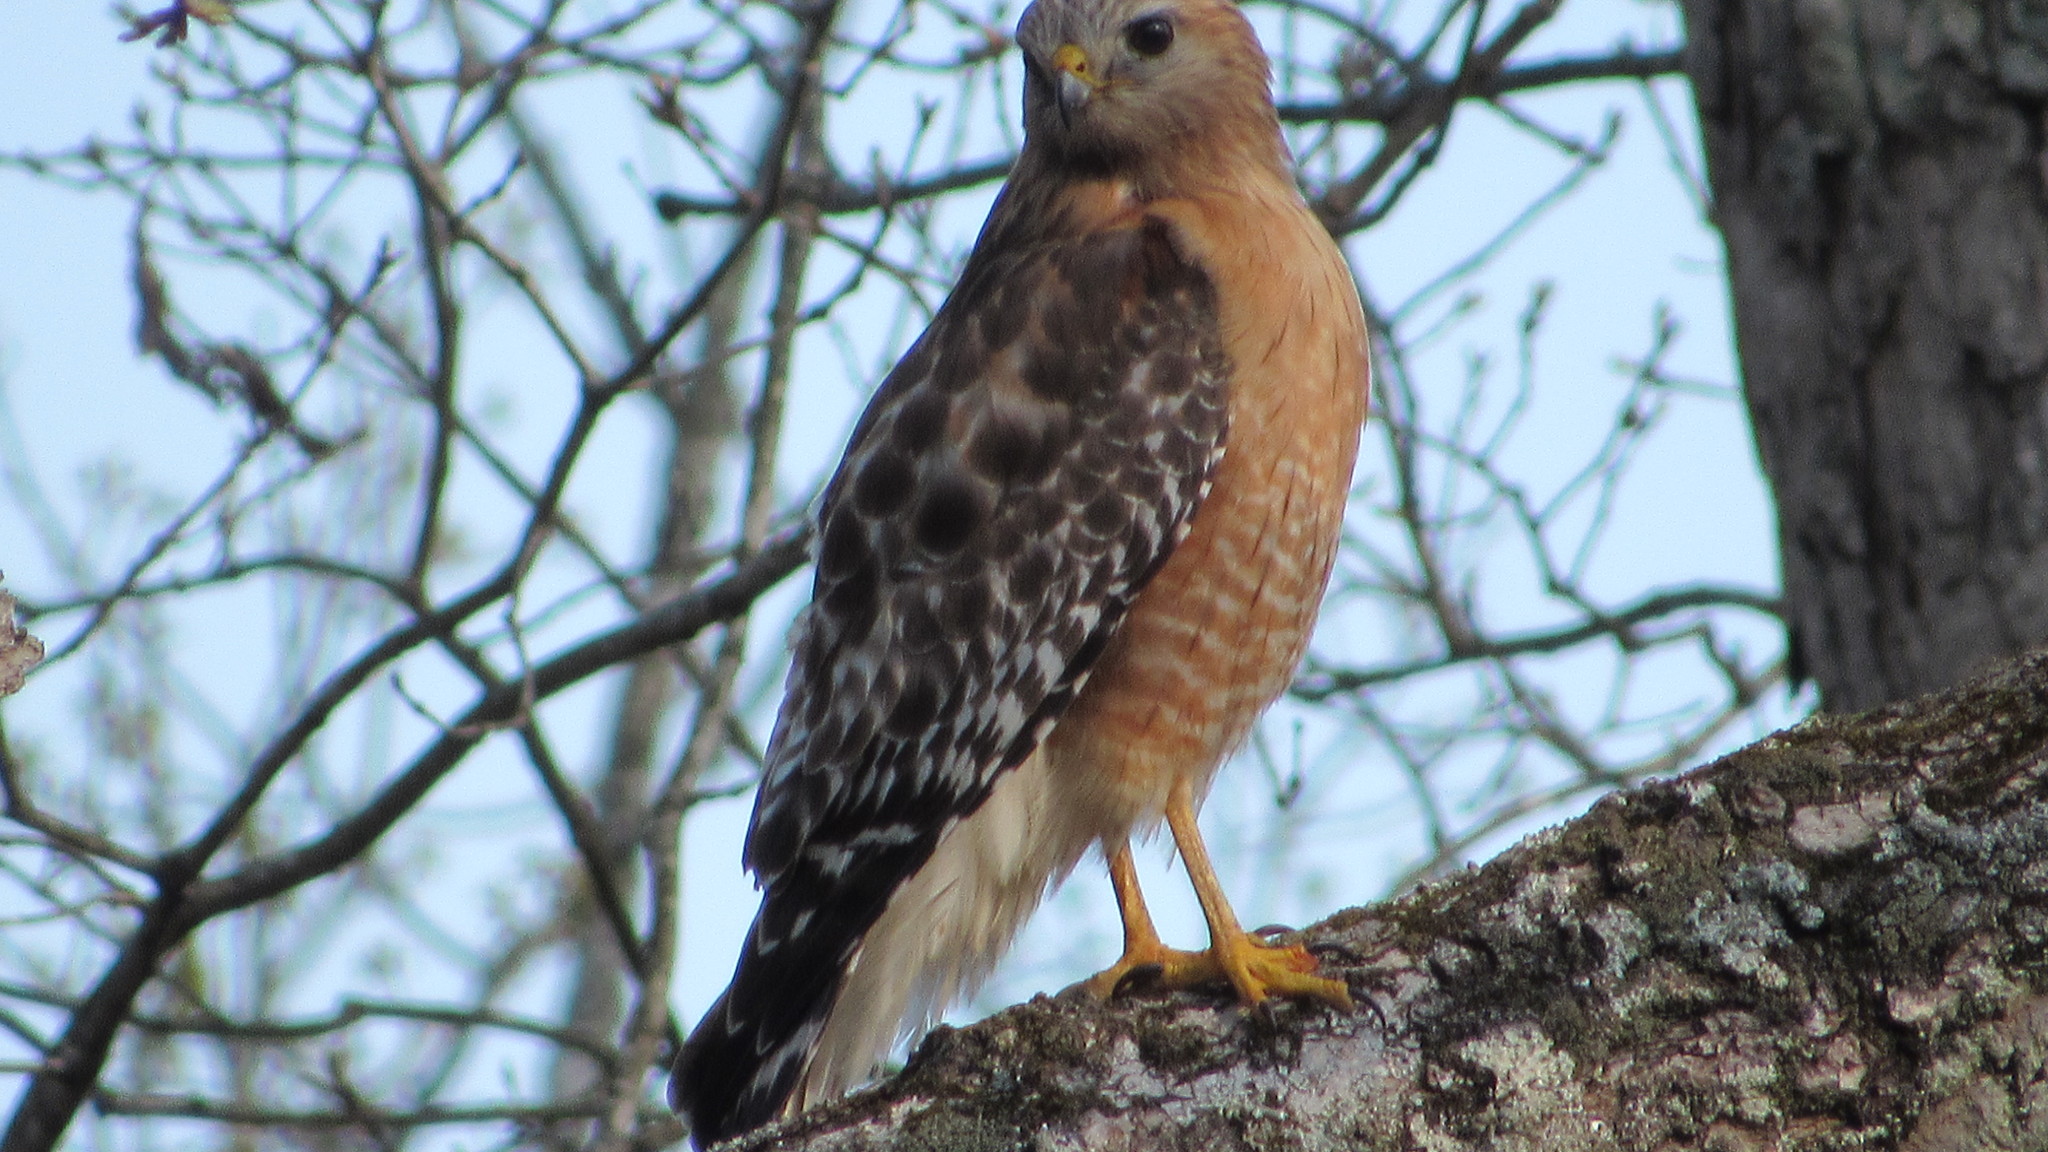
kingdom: Animalia
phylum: Chordata
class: Aves
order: Accipitriformes
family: Accipitridae
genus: Buteo
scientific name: Buteo lineatus
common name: Red-shouldered hawk
